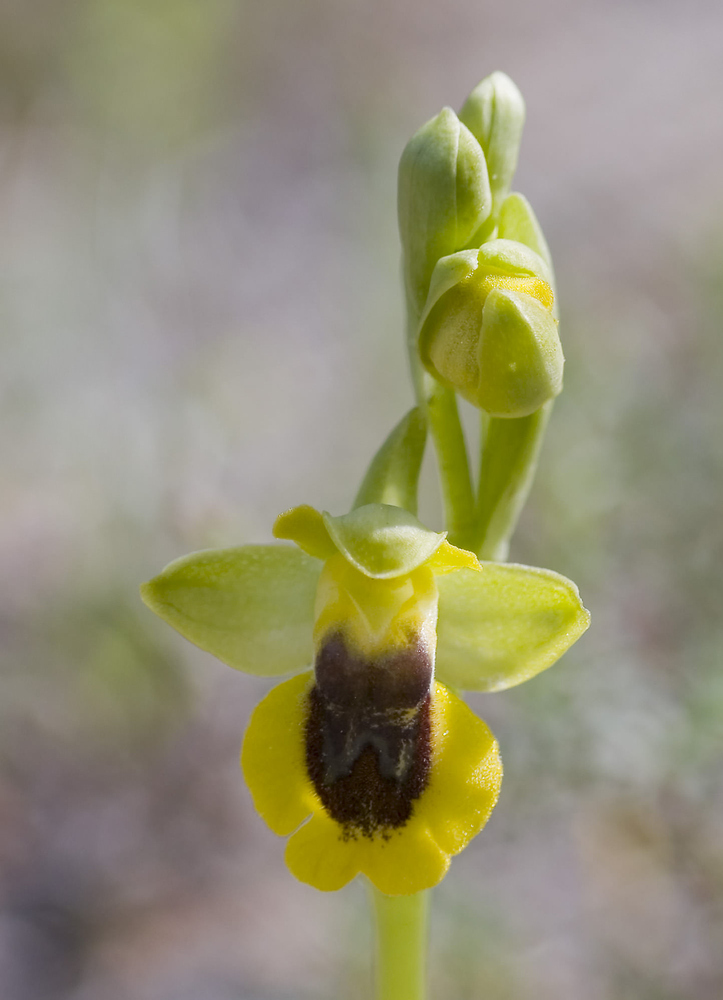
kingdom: Plantae
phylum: Tracheophyta
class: Liliopsida
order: Asparagales
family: Orchidaceae
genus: Ophrys
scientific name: Ophrys lutea
